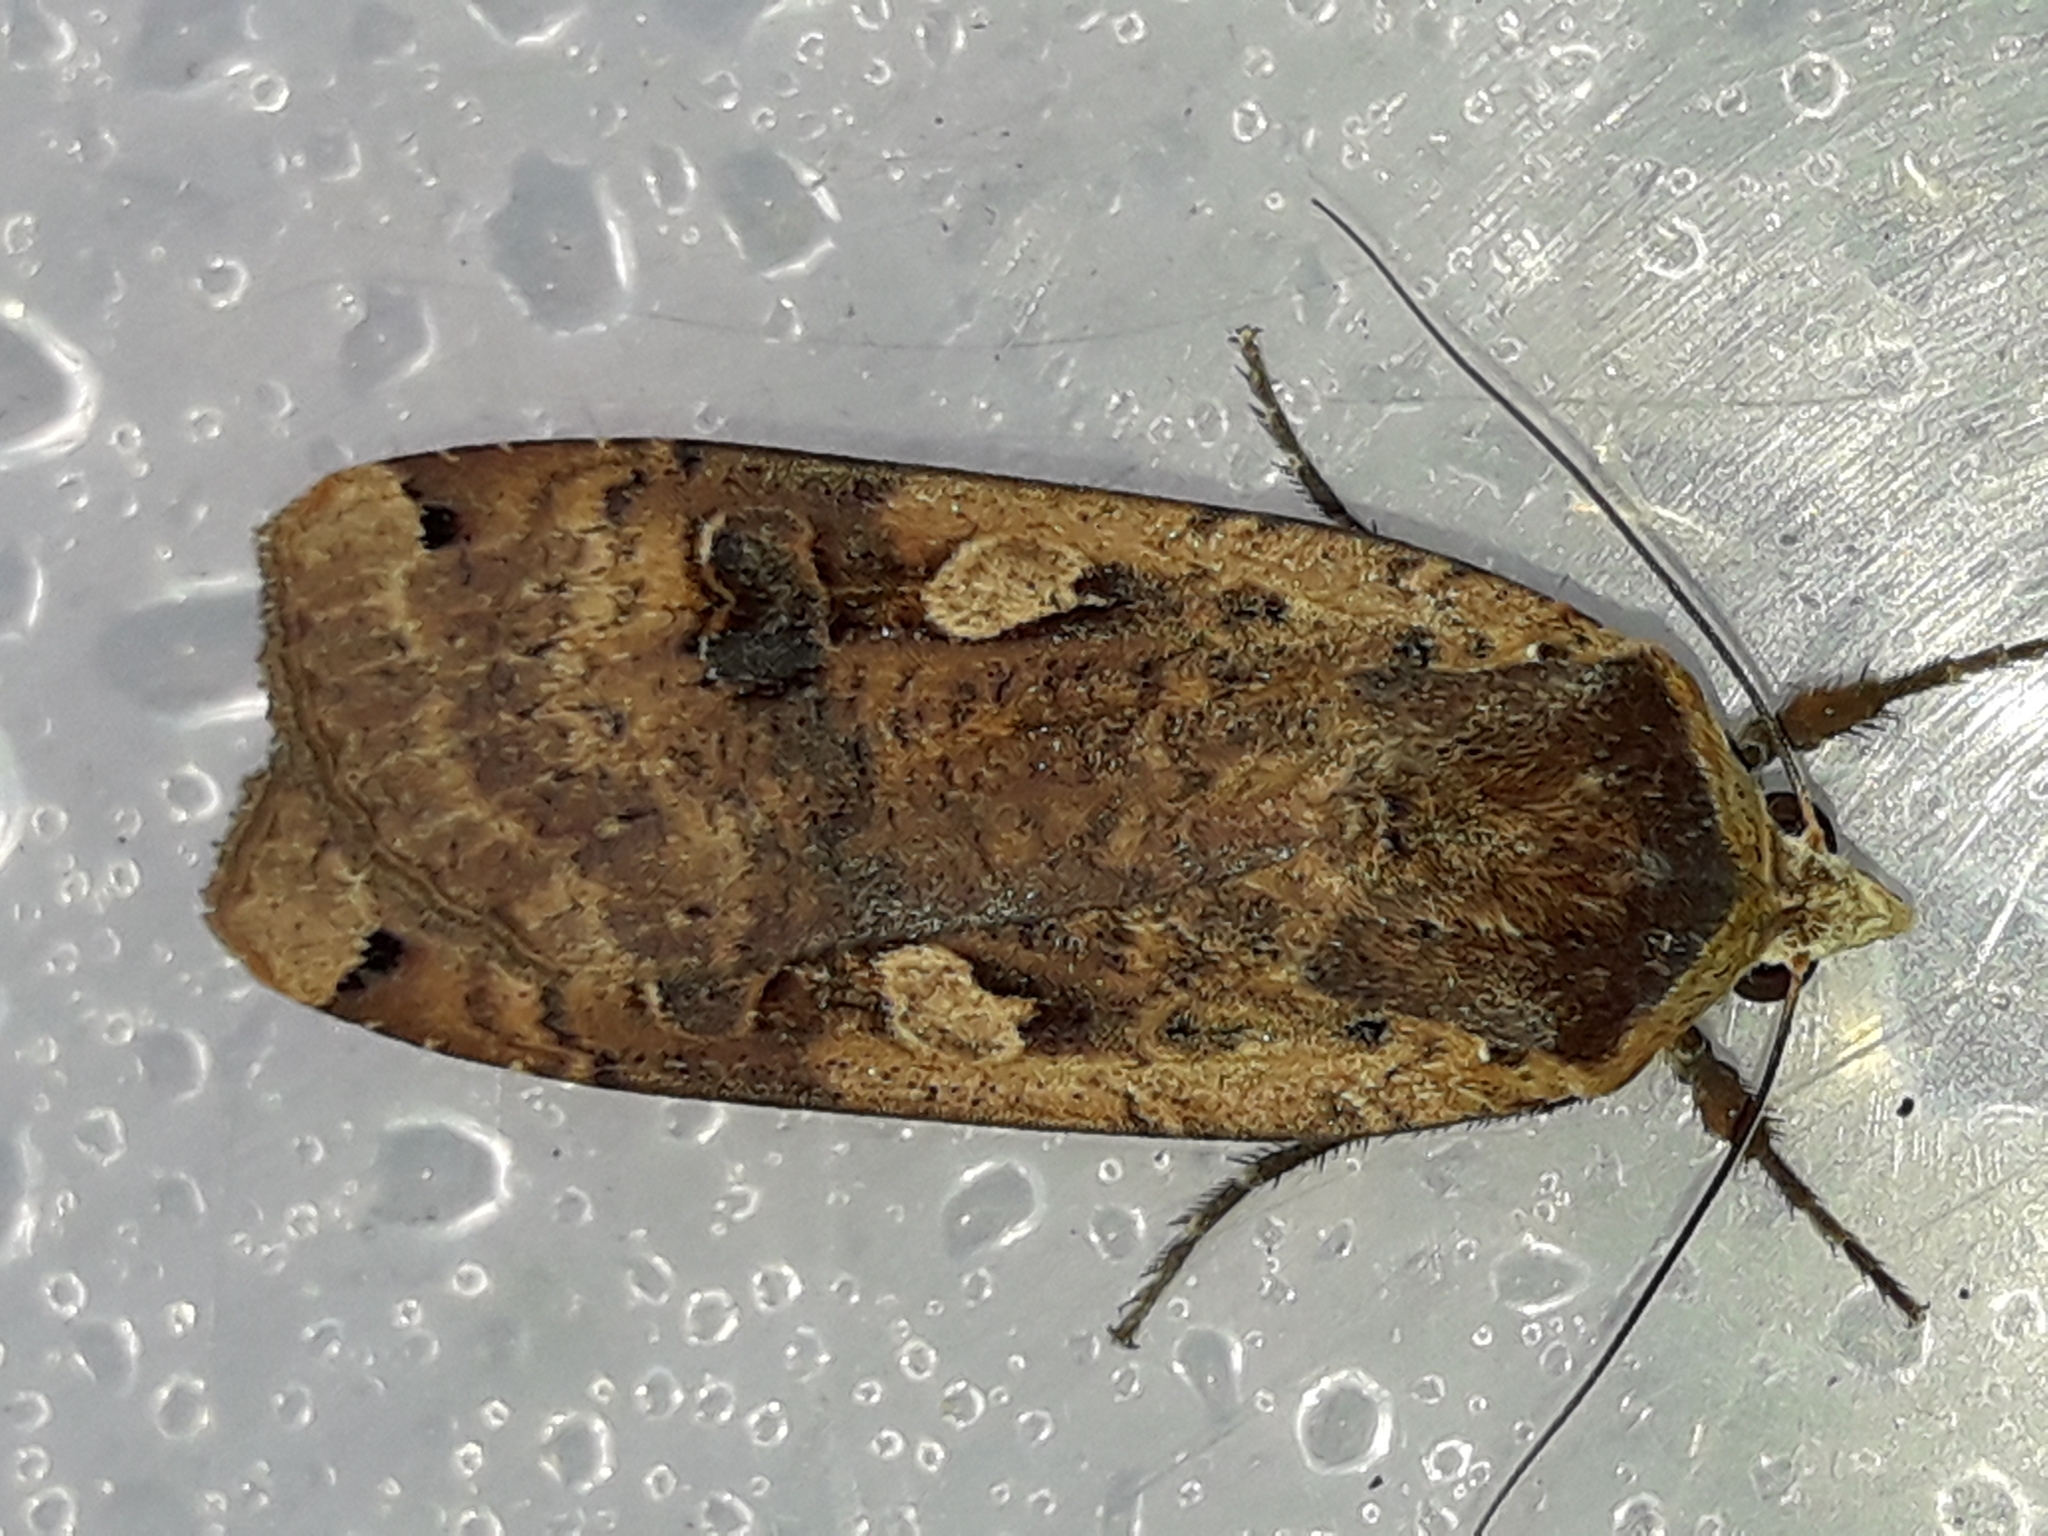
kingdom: Animalia
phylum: Arthropoda
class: Insecta
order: Lepidoptera
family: Noctuidae
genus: Noctua
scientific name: Noctua pronuba
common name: Large yellow underwing
